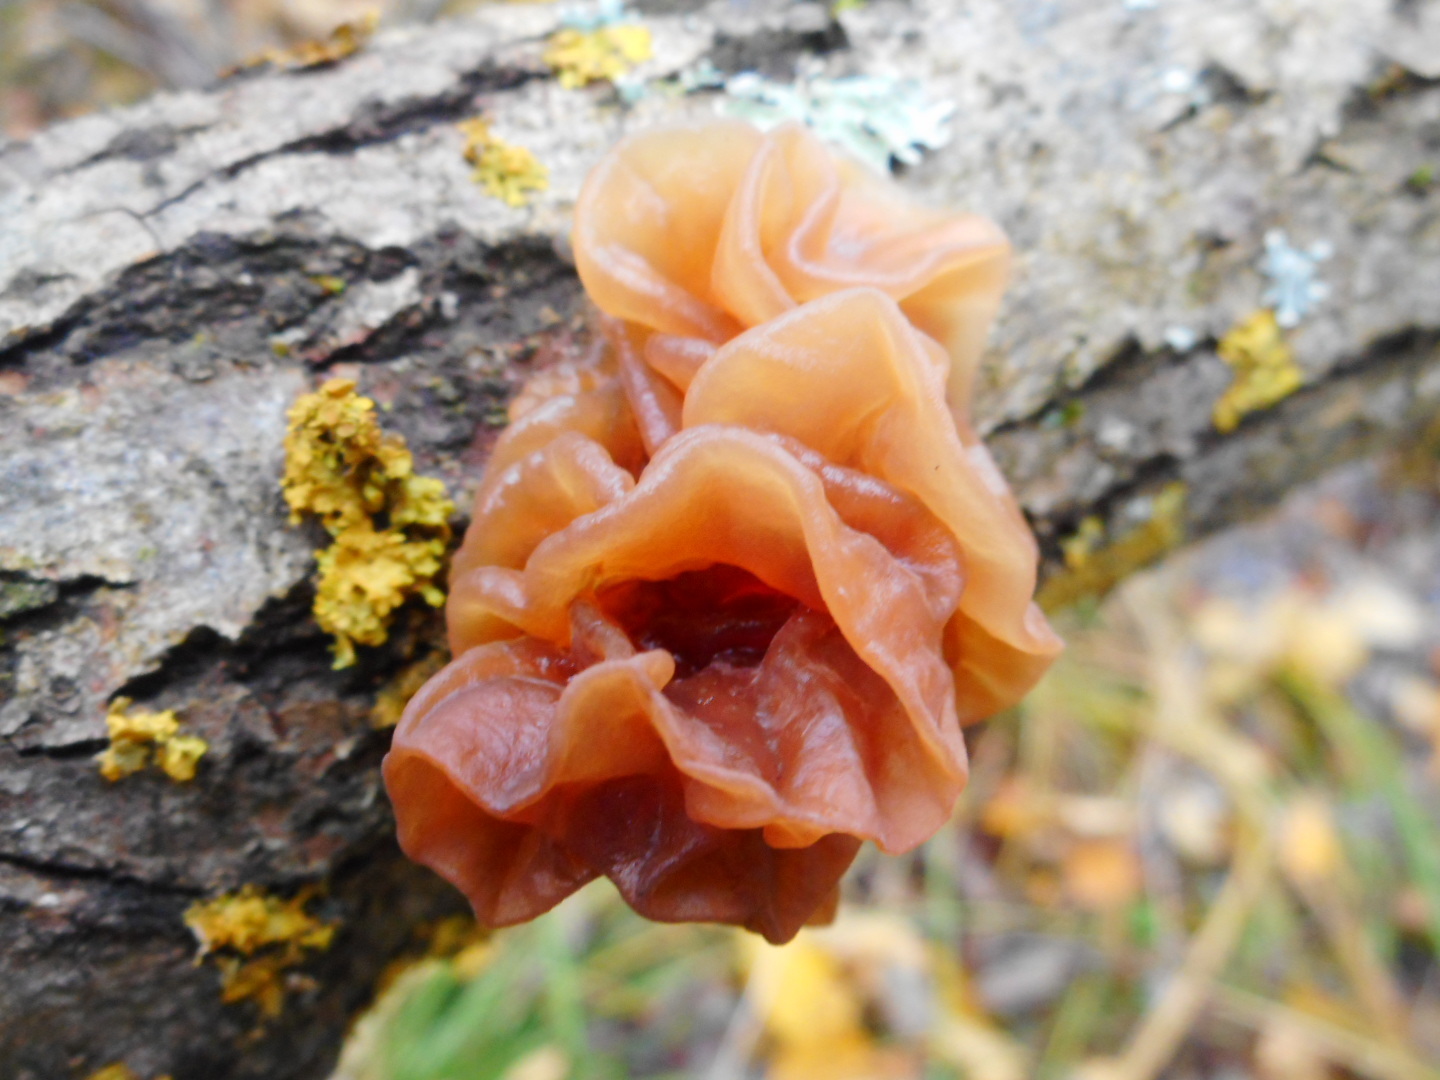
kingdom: Fungi
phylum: Basidiomycota
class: Tremellomycetes
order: Tremellales
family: Tremellaceae
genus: Phaeotremella
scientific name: Phaeotremella frondosa
